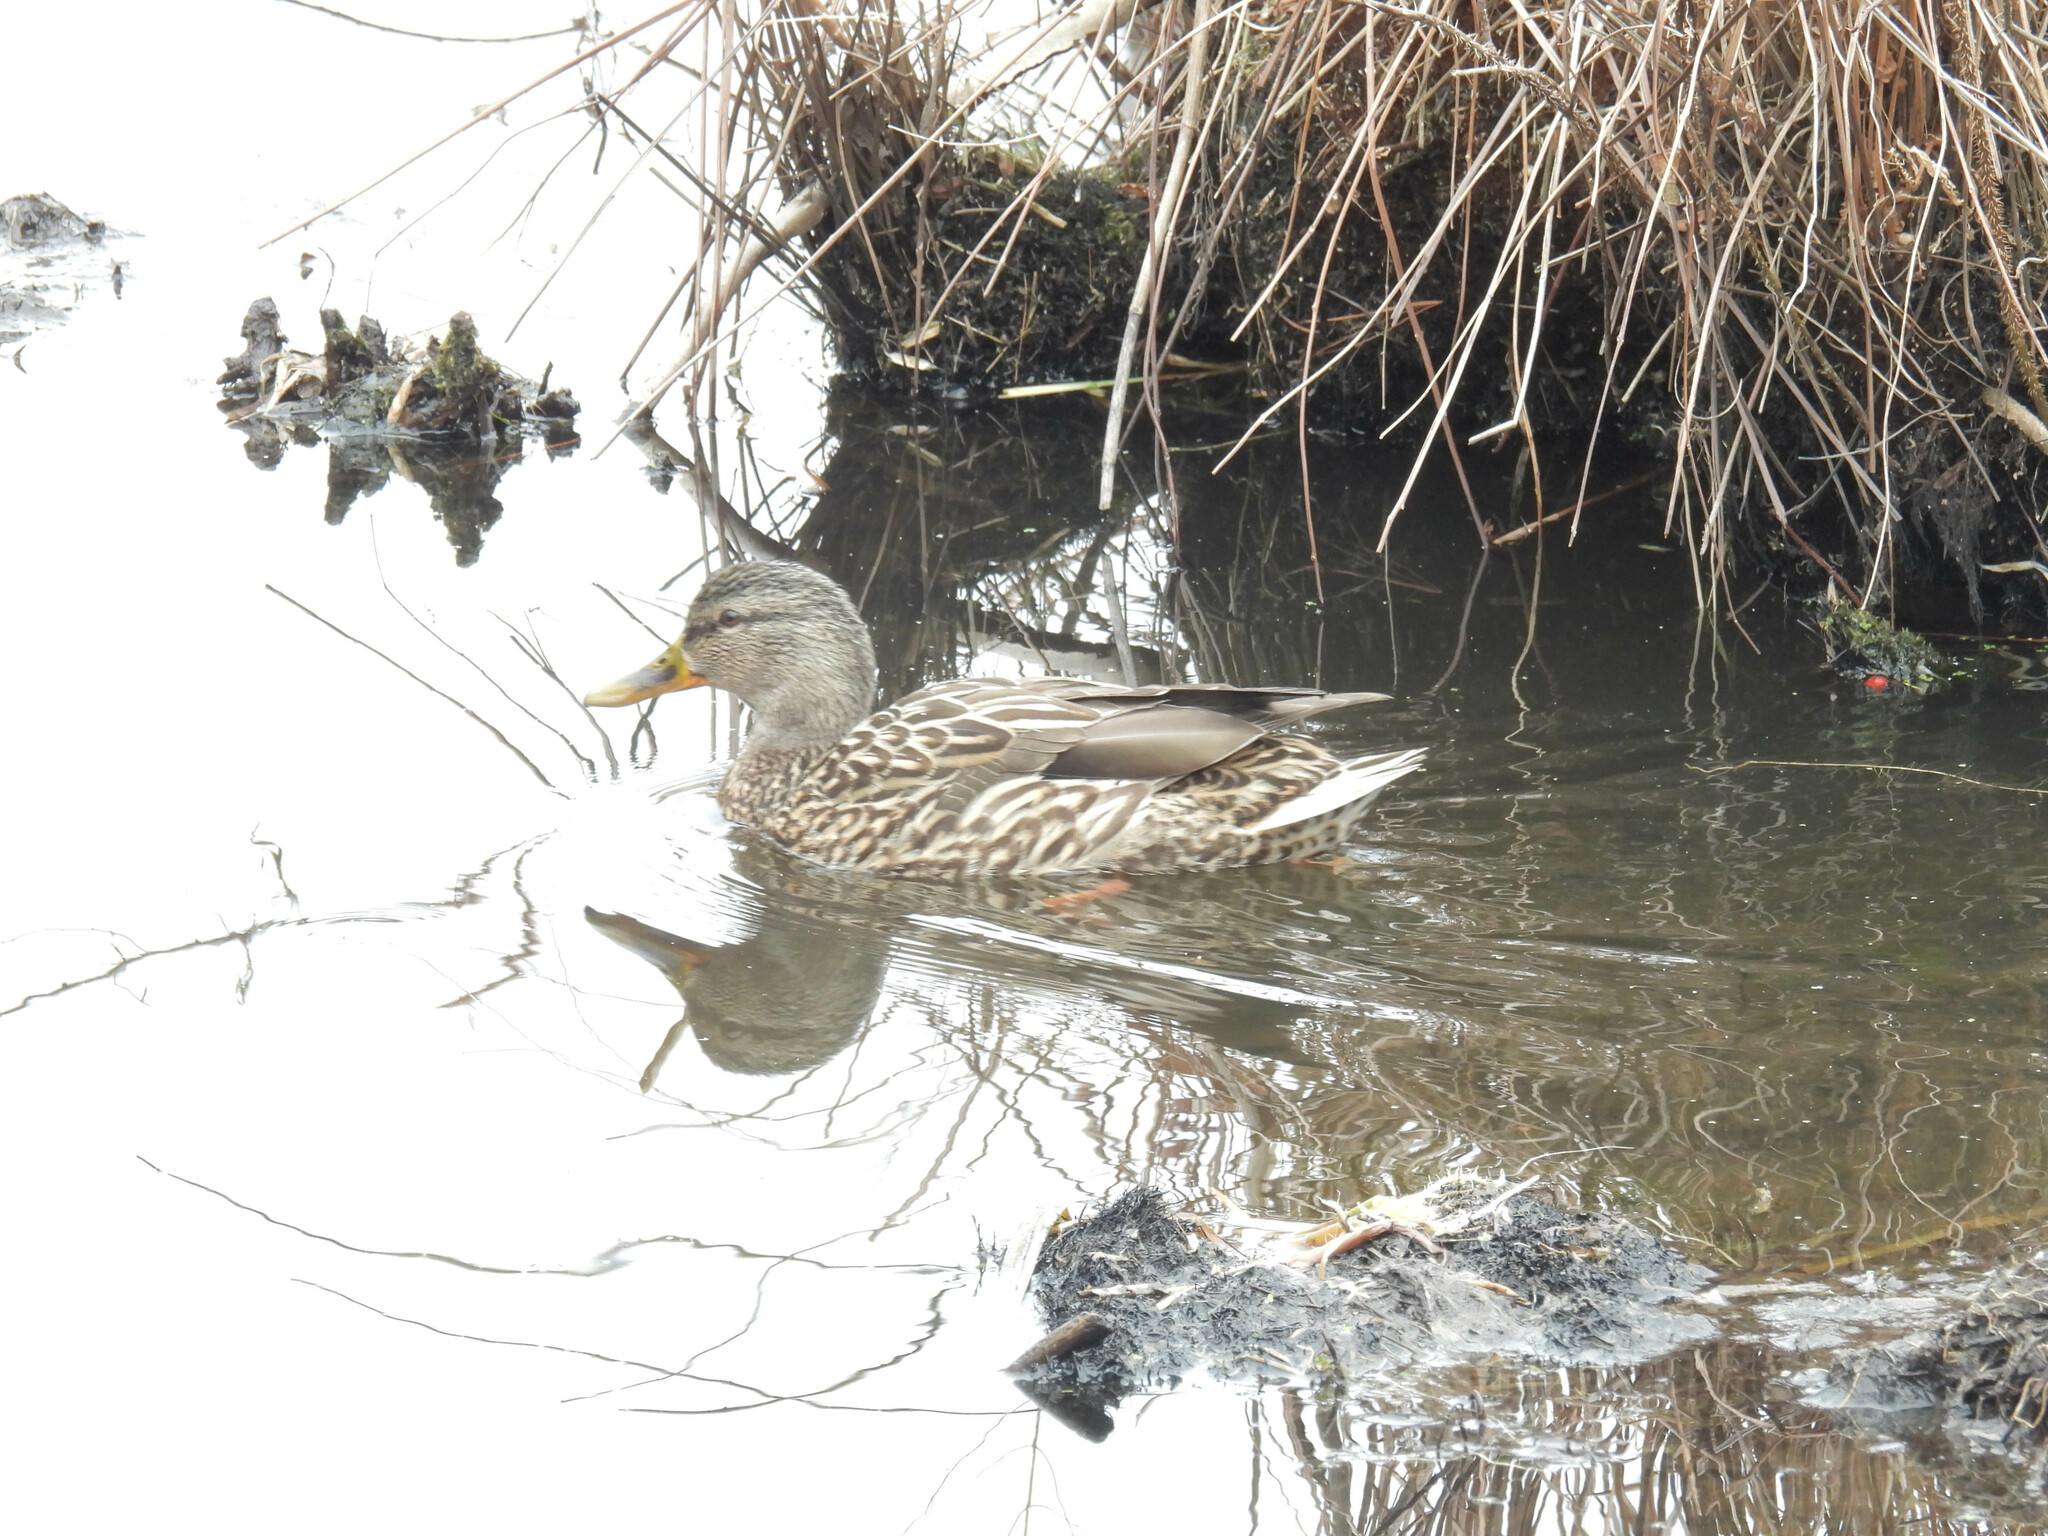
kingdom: Animalia
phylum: Chordata
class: Aves
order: Anseriformes
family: Anatidae
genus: Anas
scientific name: Anas platyrhynchos
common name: Mallard
